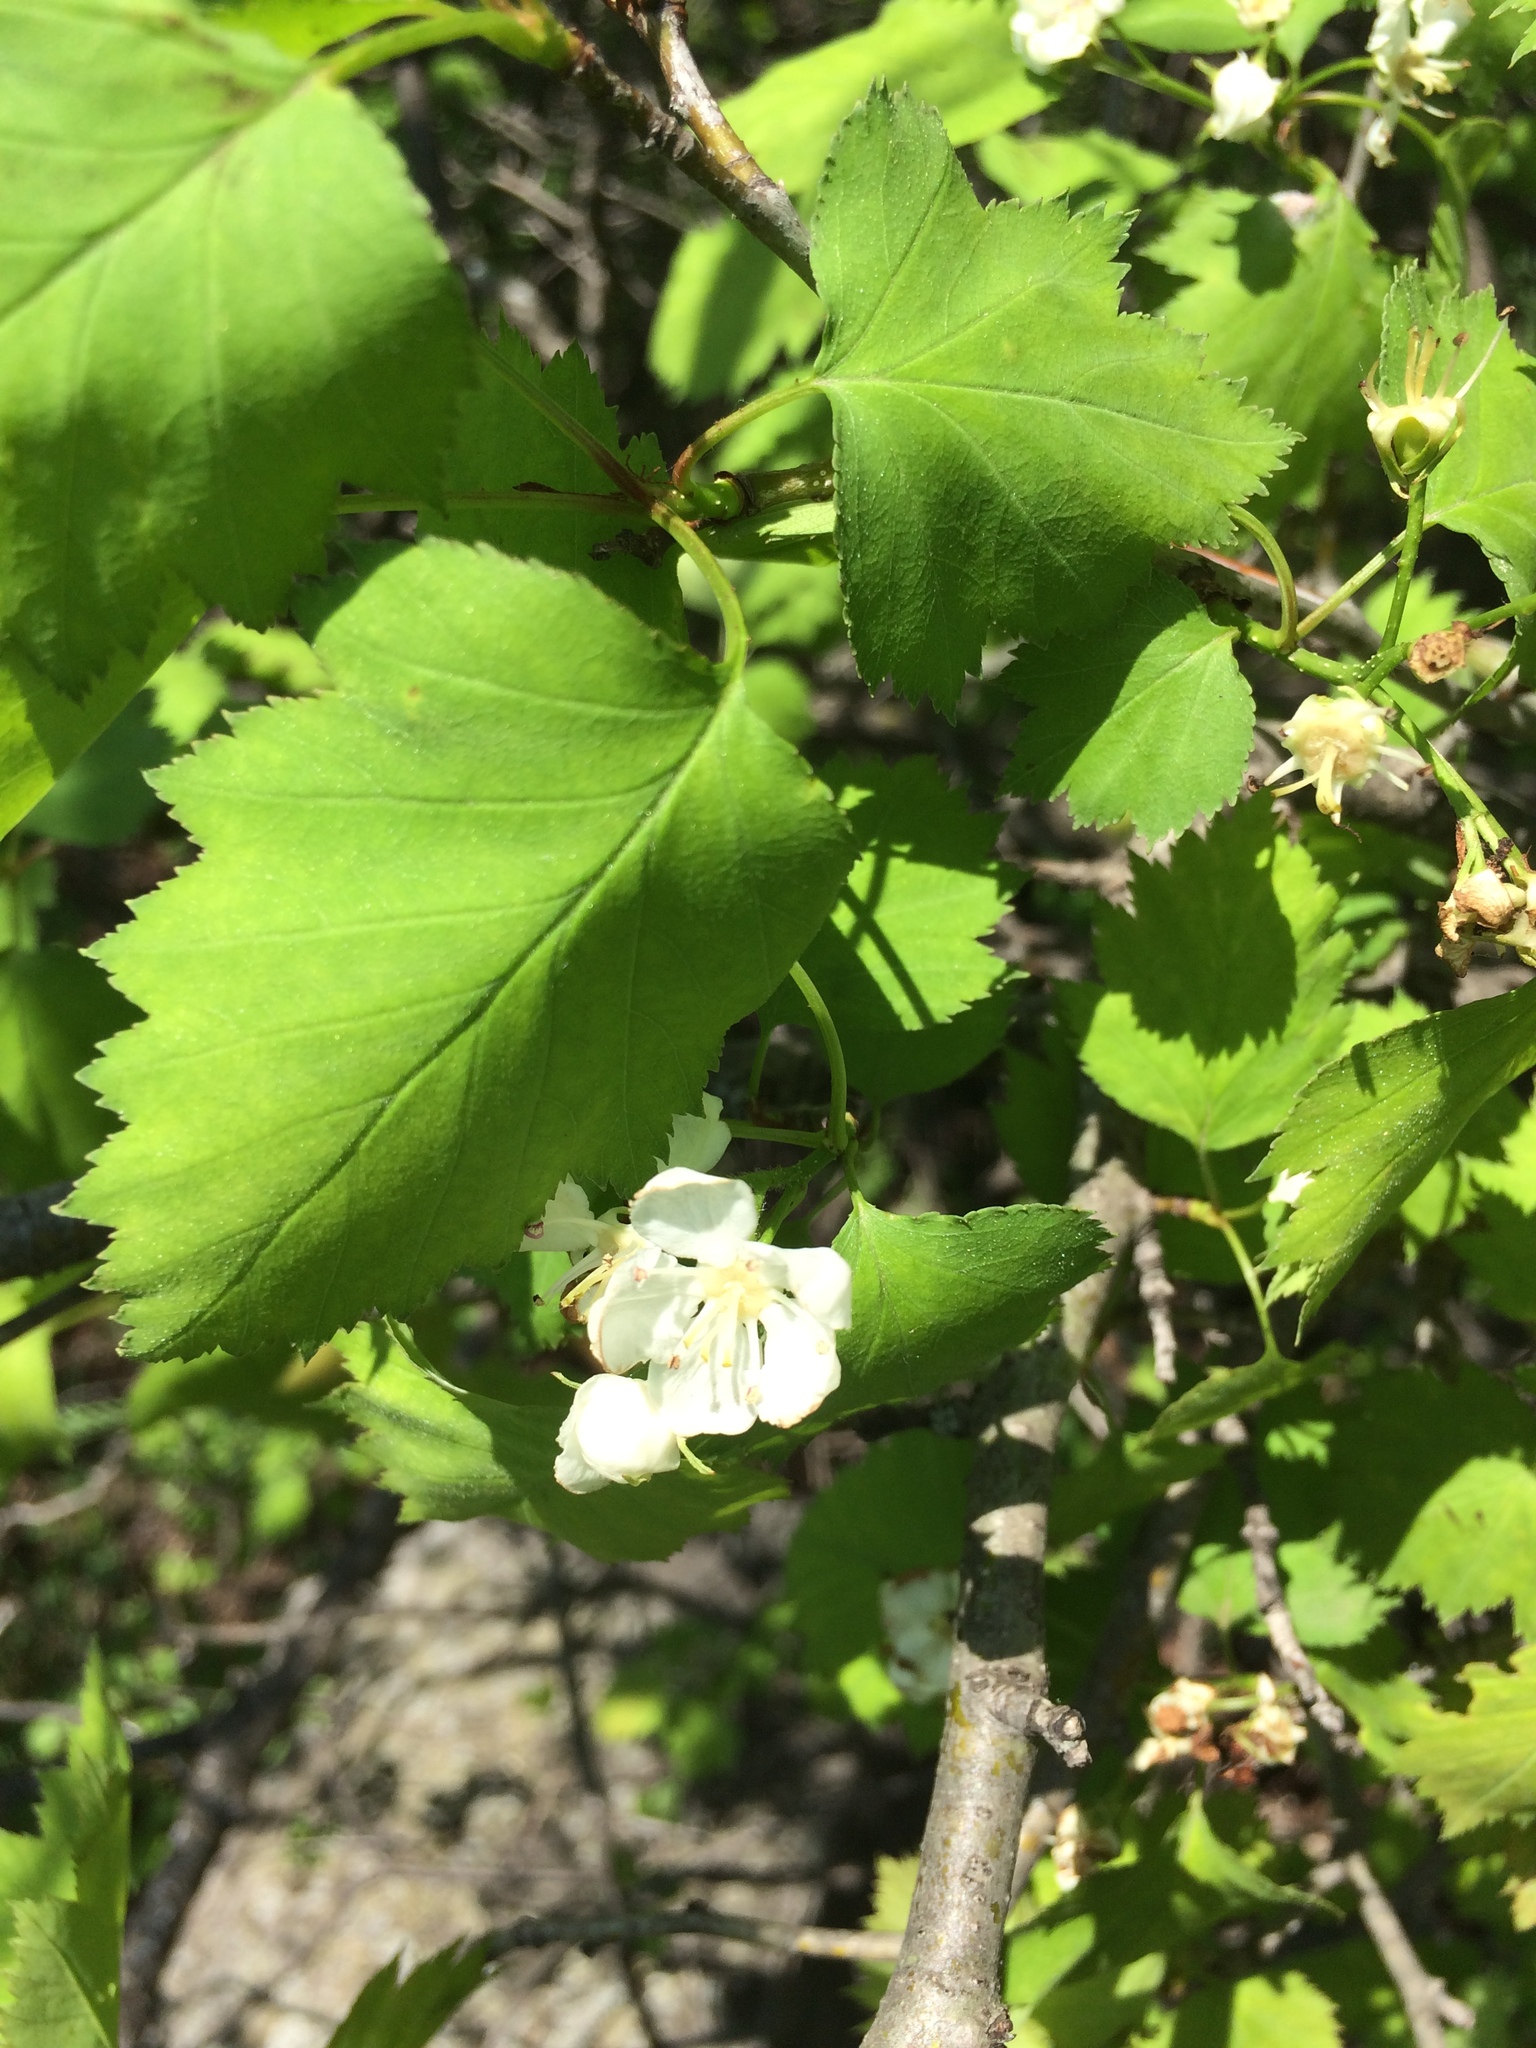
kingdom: Plantae
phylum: Tracheophyta
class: Magnoliopsida
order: Rosales
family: Rosaceae
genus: Crataegus
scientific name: Crataegus fluviatilis
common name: Fort sheridan hawthorn
